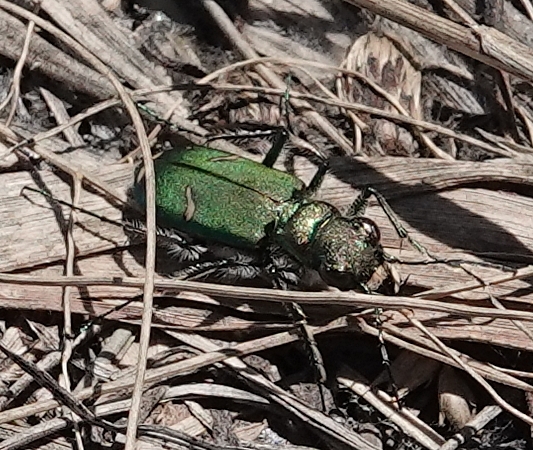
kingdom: Animalia
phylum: Arthropoda
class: Insecta
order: Coleoptera
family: Carabidae
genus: Cicindela
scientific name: Cicindela purpurea
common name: Cow path tiger beetle
